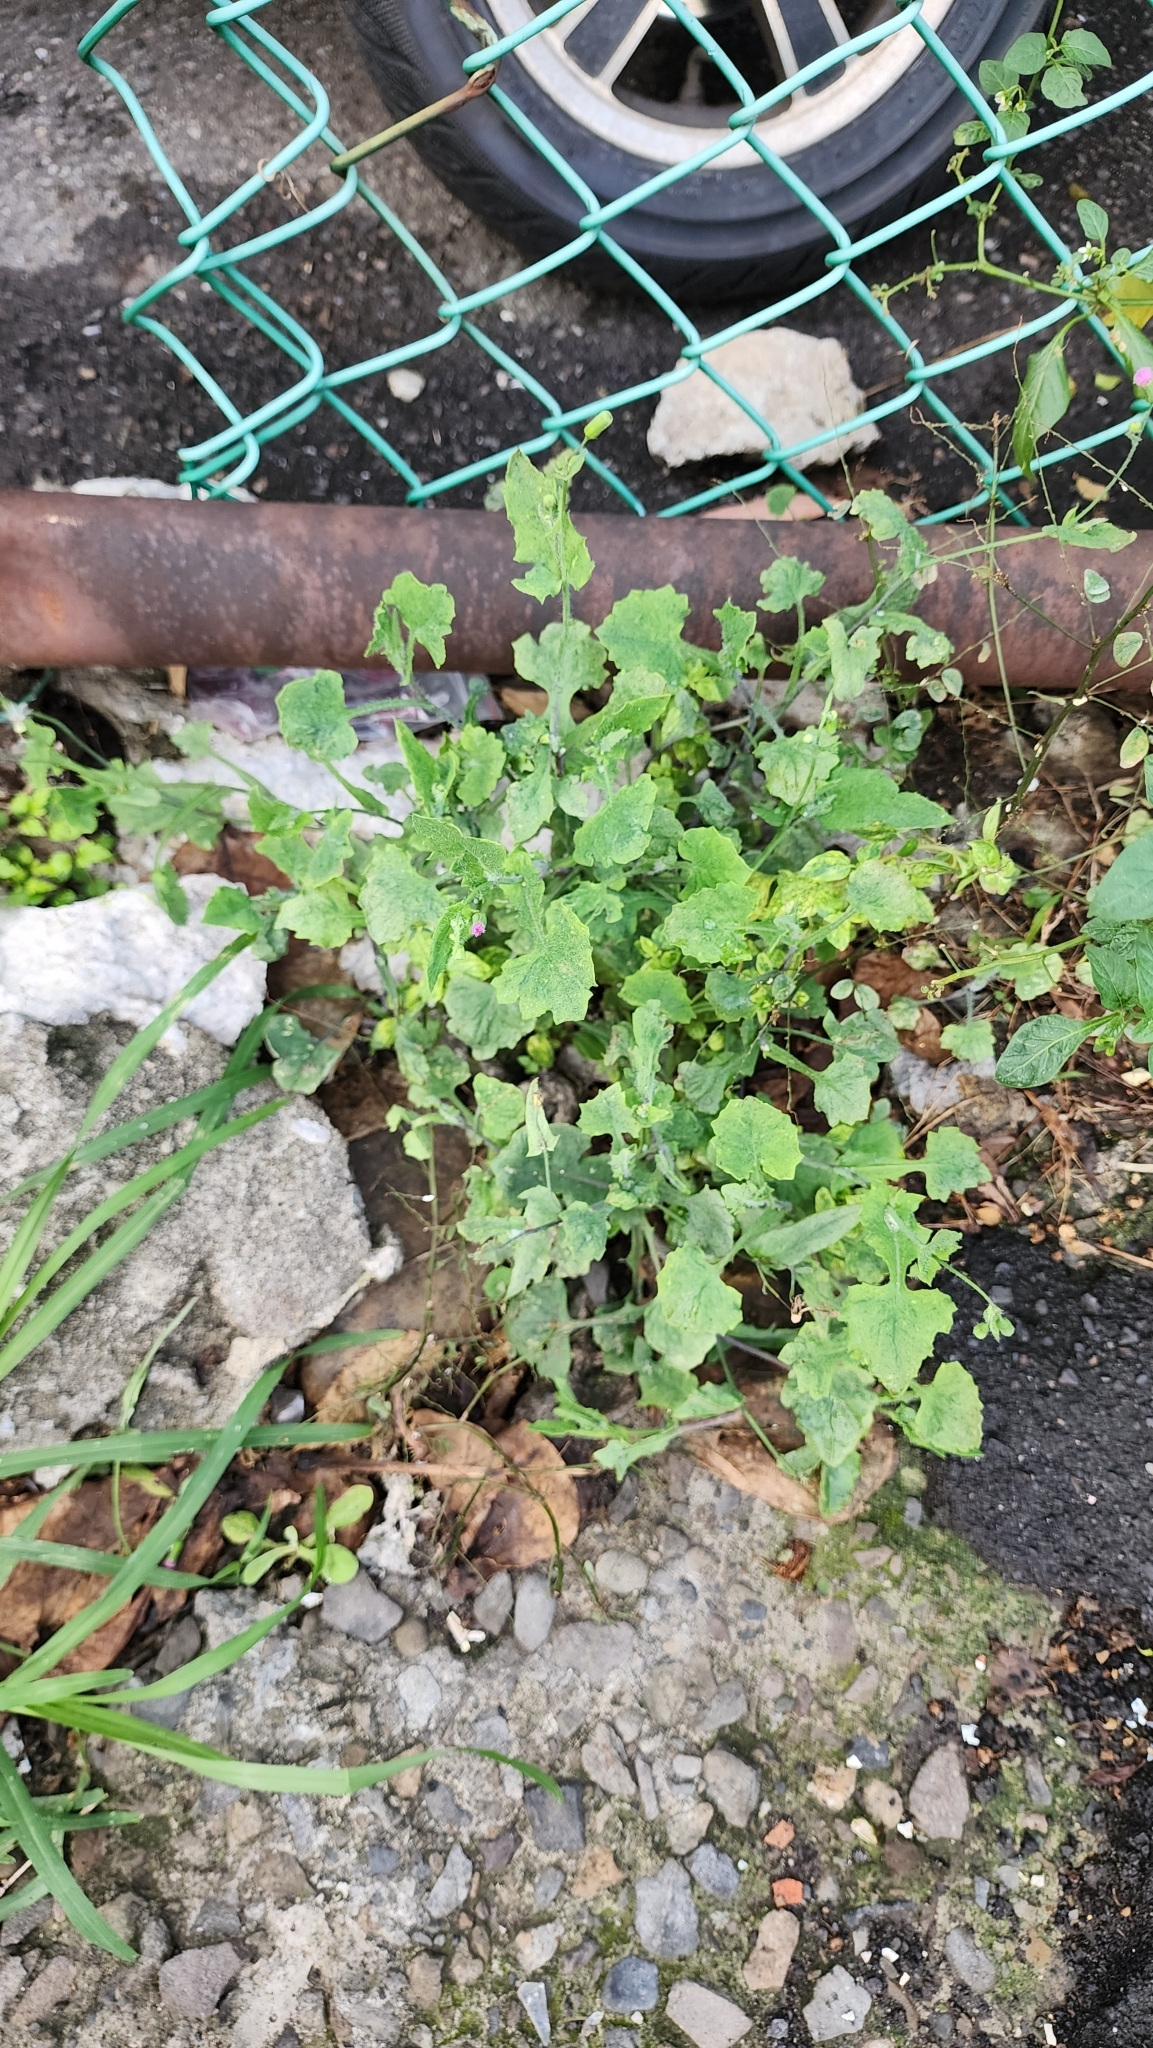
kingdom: Plantae
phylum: Tracheophyta
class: Magnoliopsida
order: Asterales
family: Asteraceae
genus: Emilia
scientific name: Emilia javanica
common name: Tassel-flower
